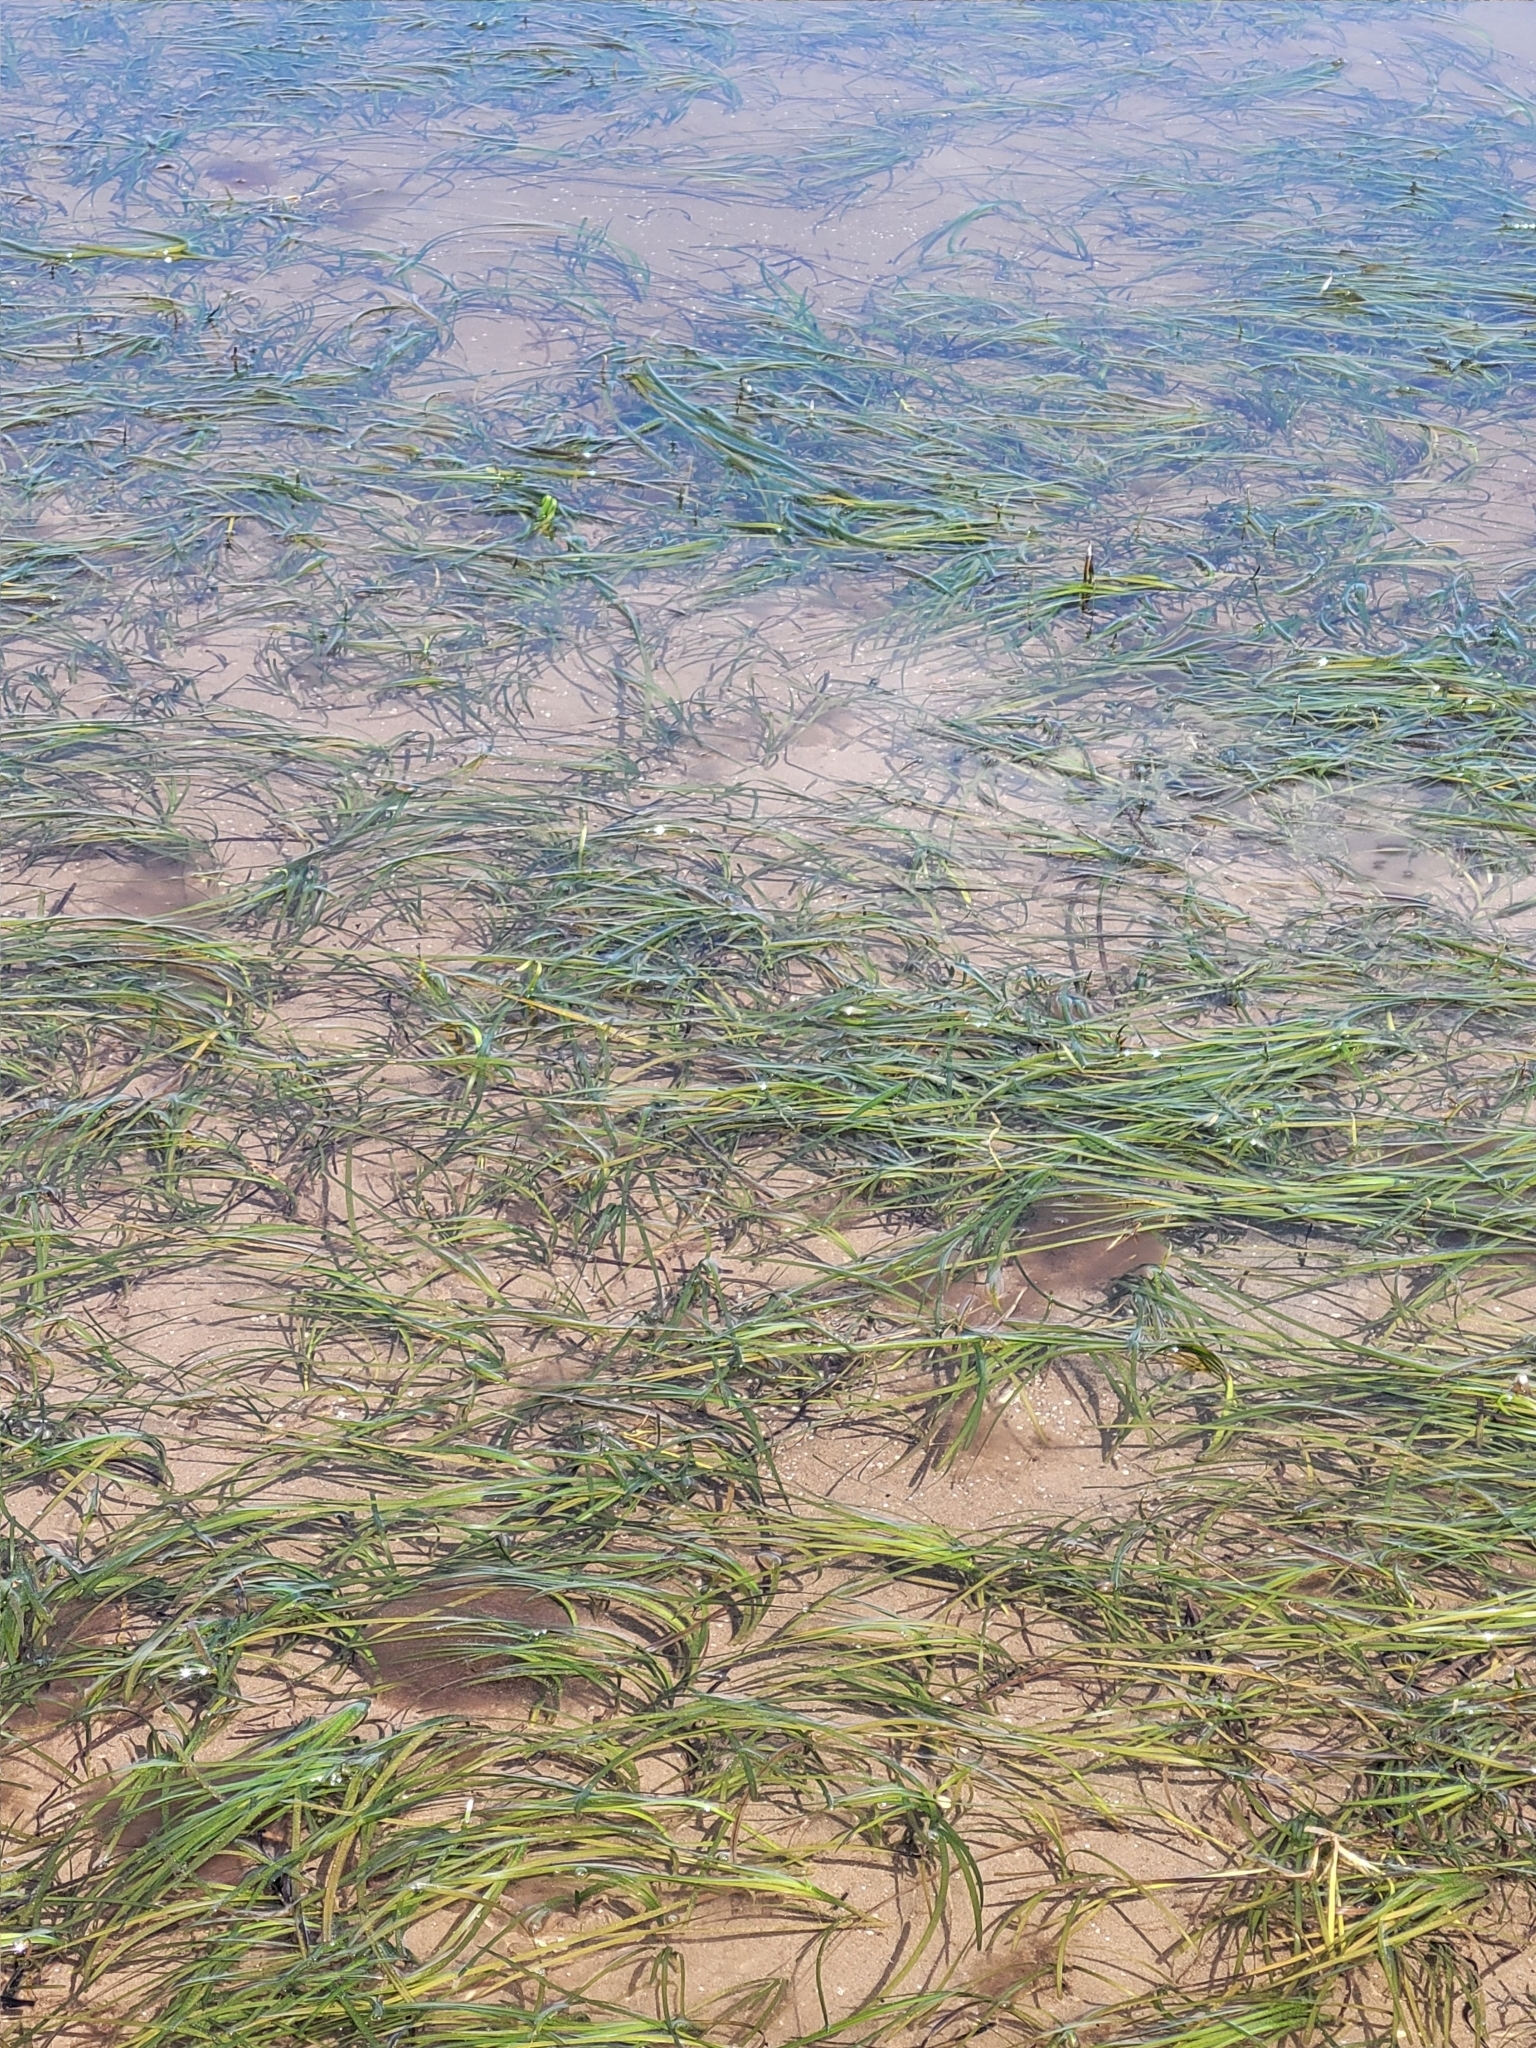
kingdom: Plantae
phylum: Tracheophyta
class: Liliopsida
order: Alismatales
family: Zosteraceae
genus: Zostera
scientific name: Zostera marina
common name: Eelgrass
